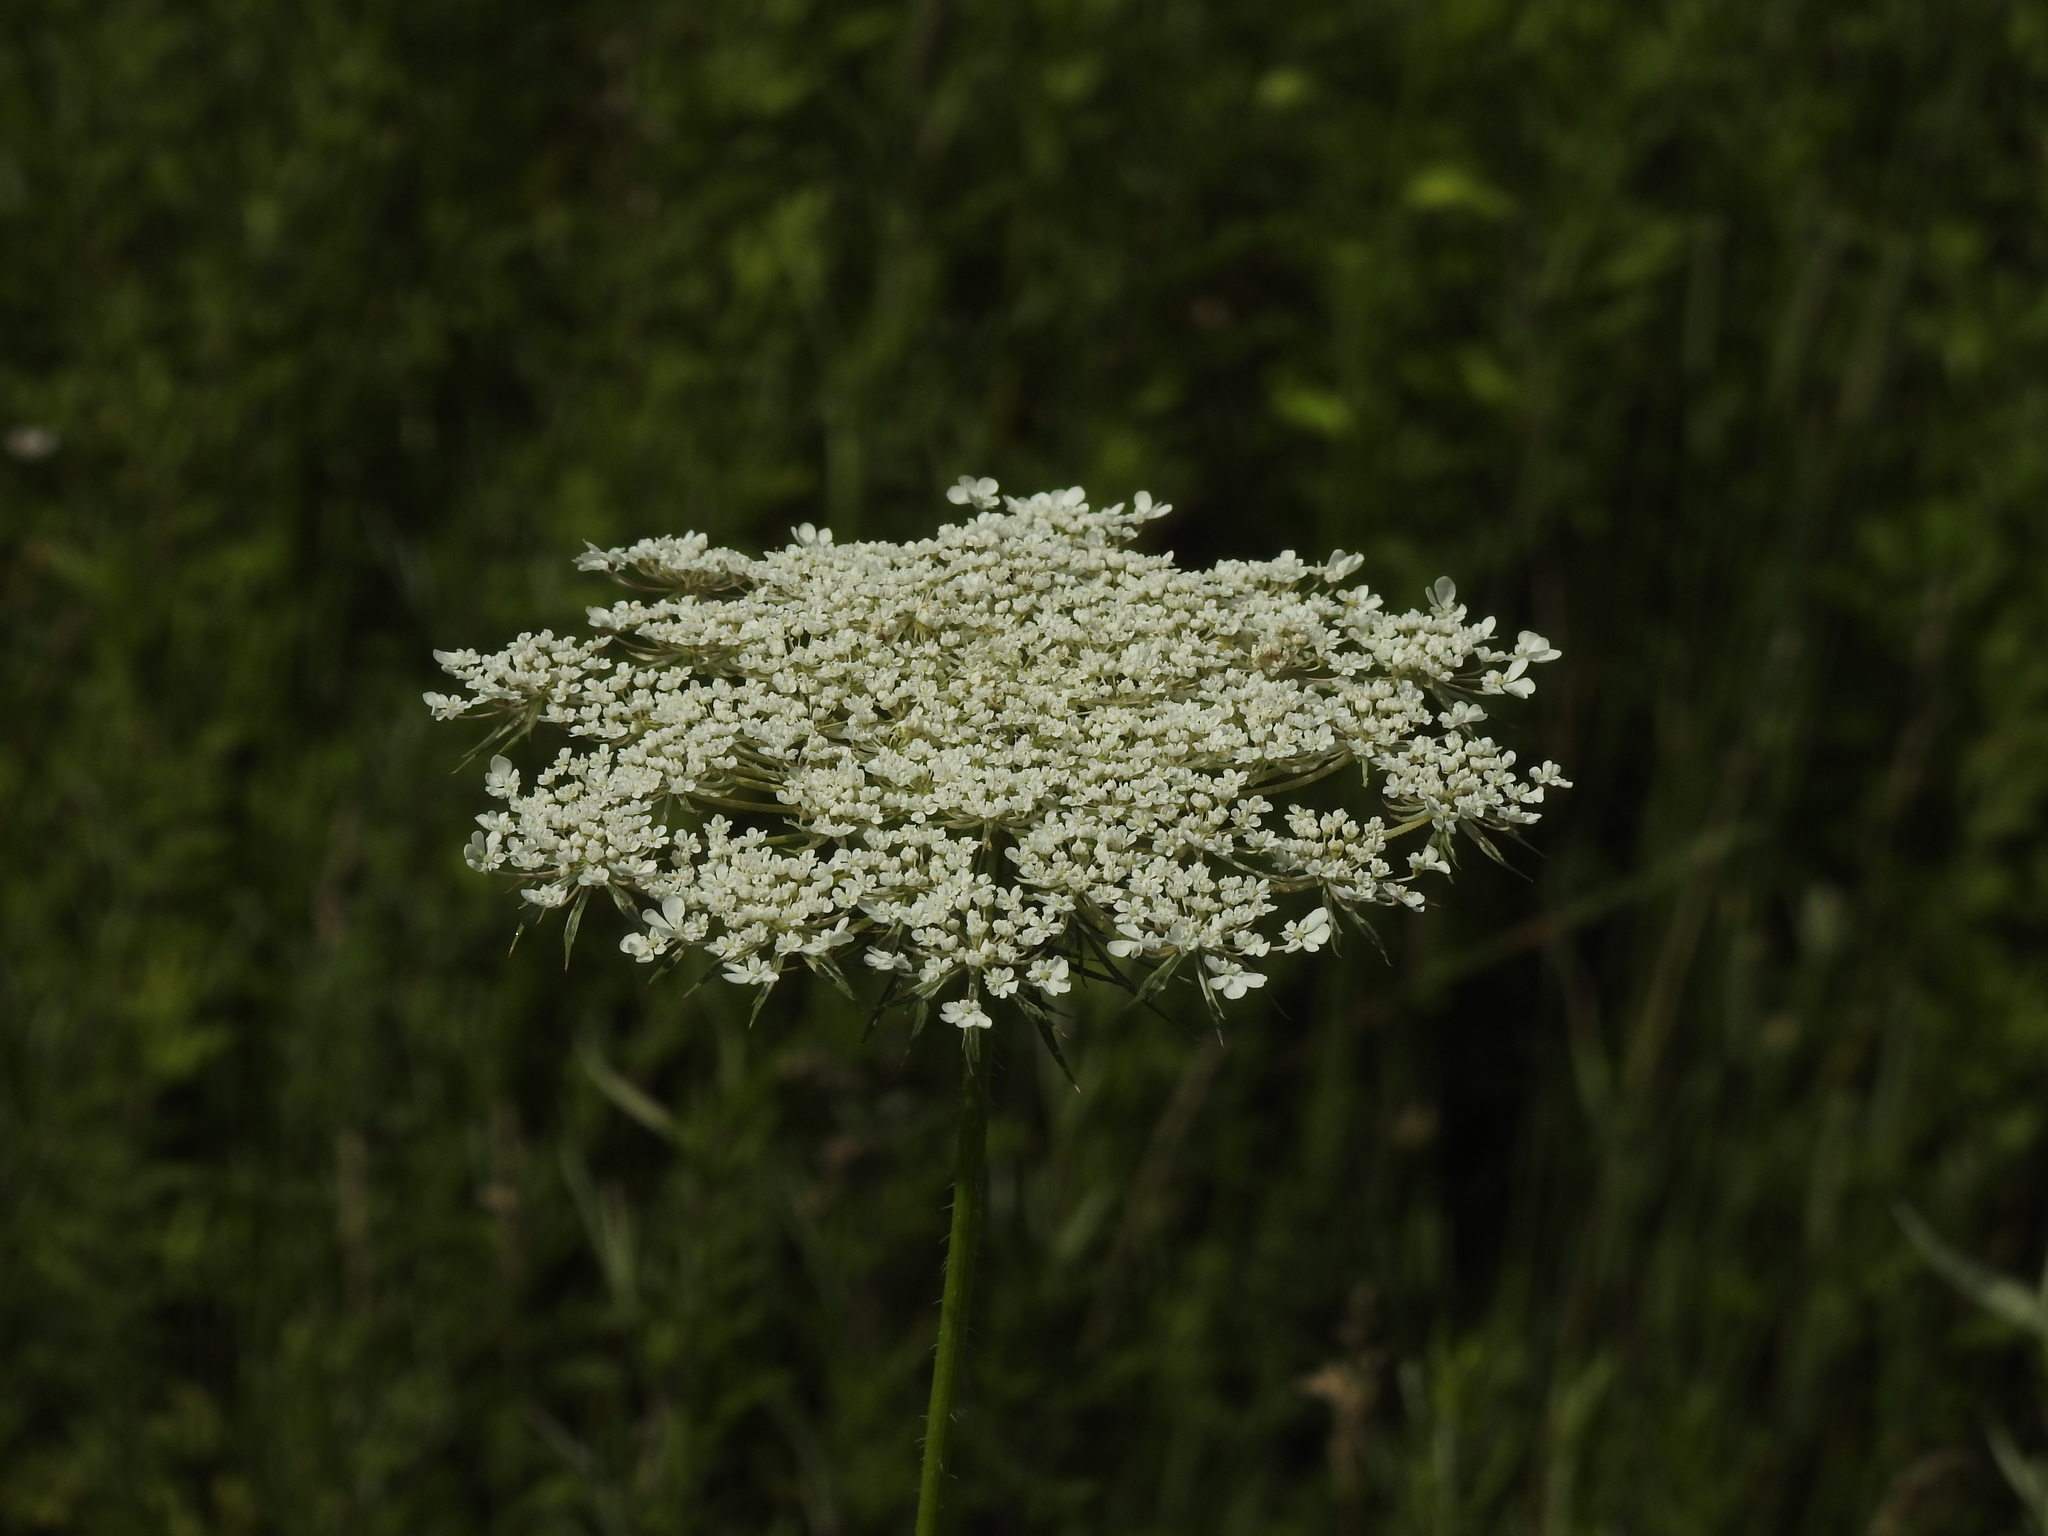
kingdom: Plantae
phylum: Tracheophyta
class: Magnoliopsida
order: Apiales
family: Apiaceae
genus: Daucus
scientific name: Daucus carota
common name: Wild carrot
